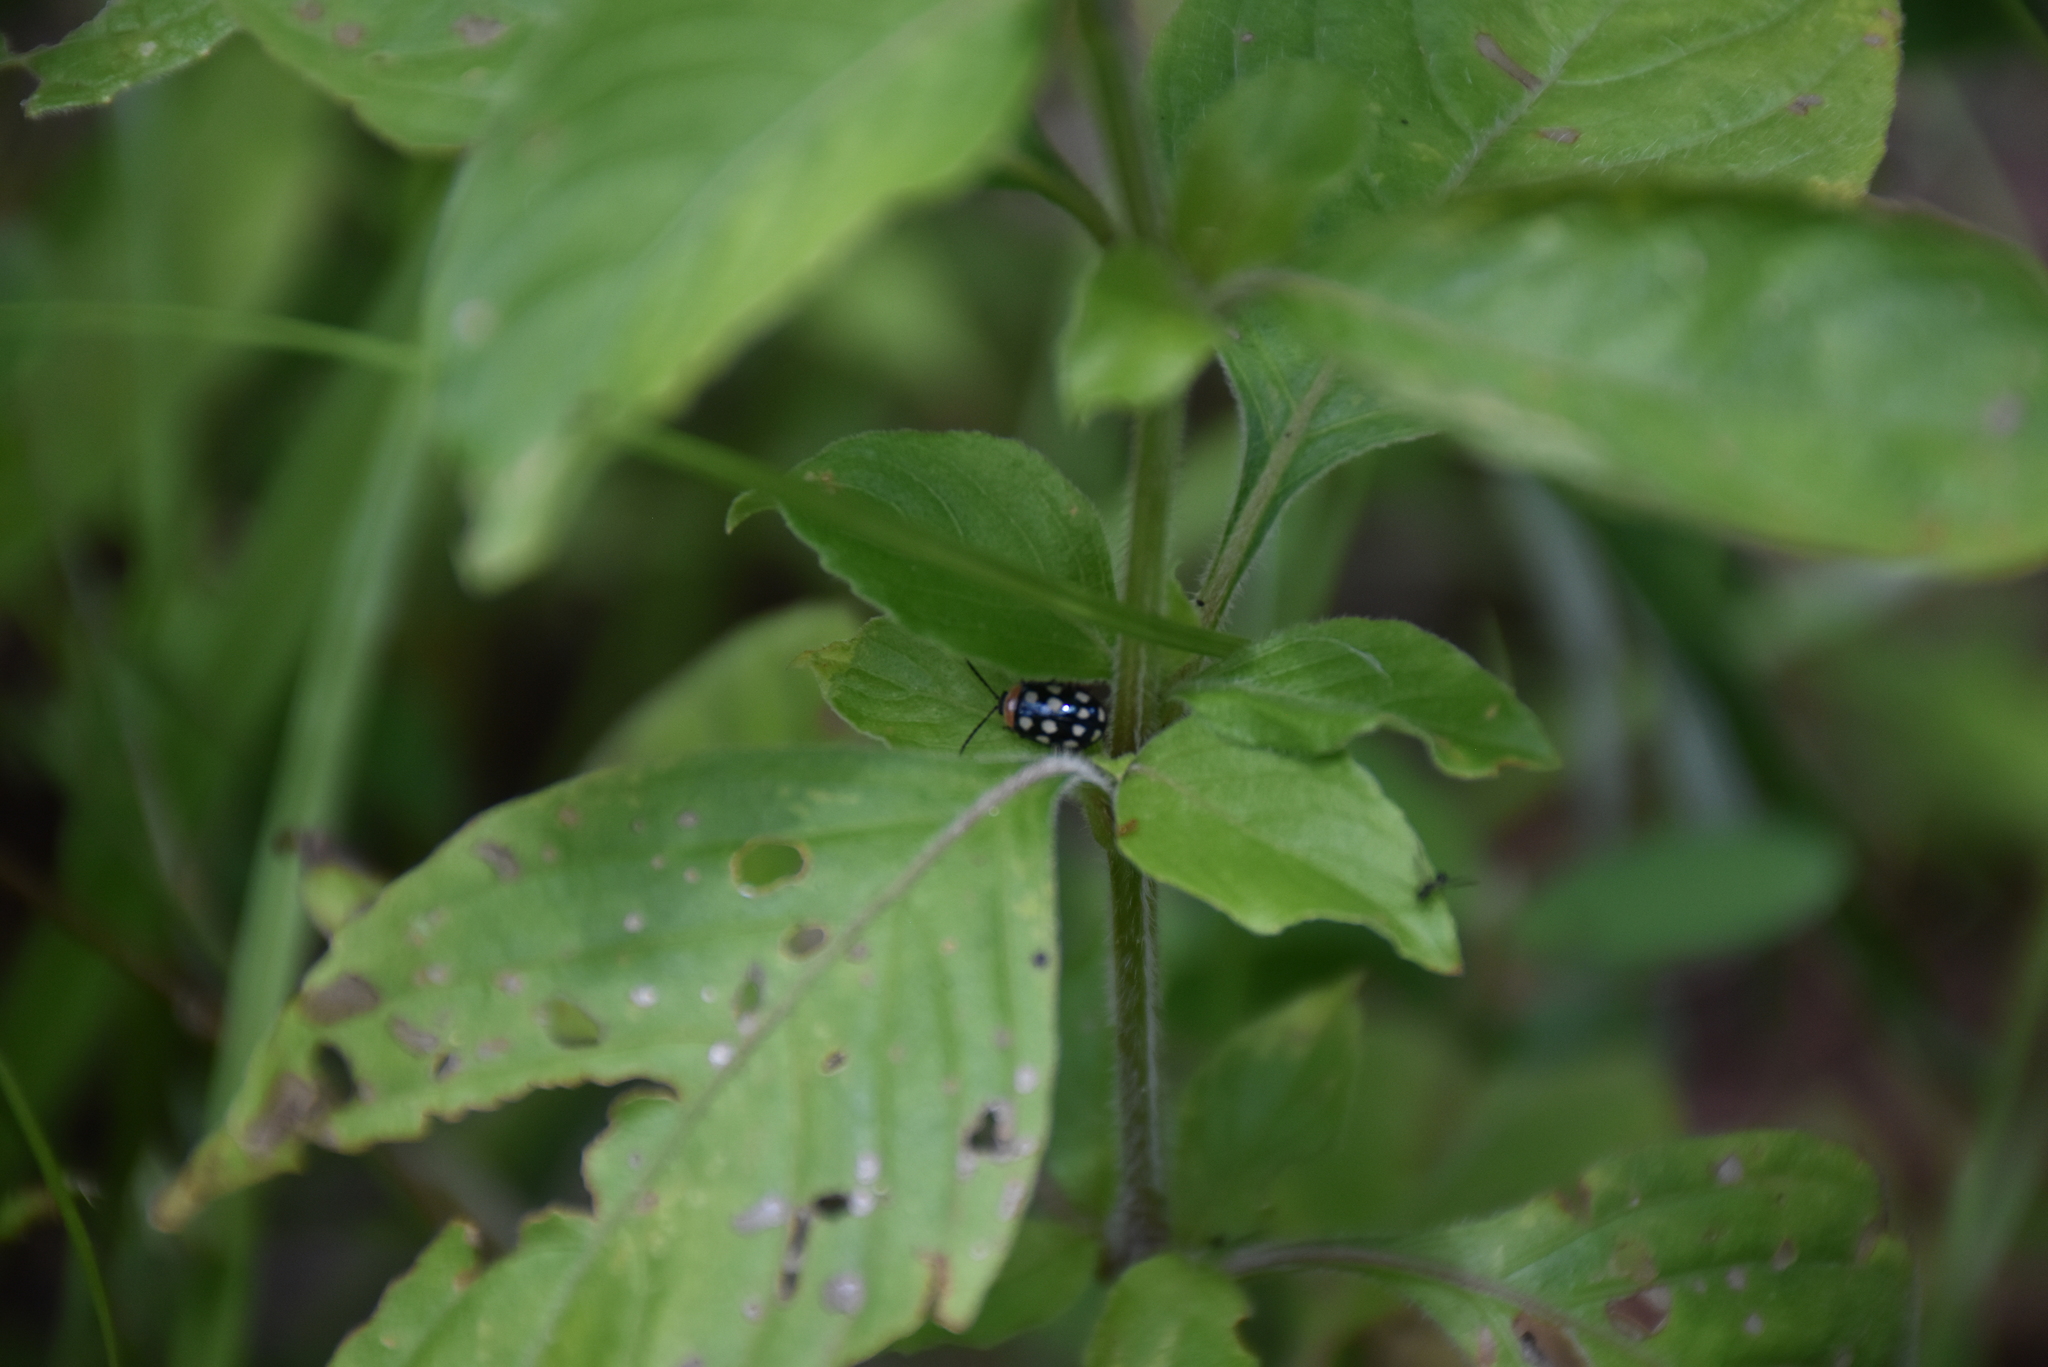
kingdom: Animalia
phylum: Arthropoda
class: Insecta
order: Coleoptera
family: Chrysomelidae
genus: Alagoasa
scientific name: Alagoasa
